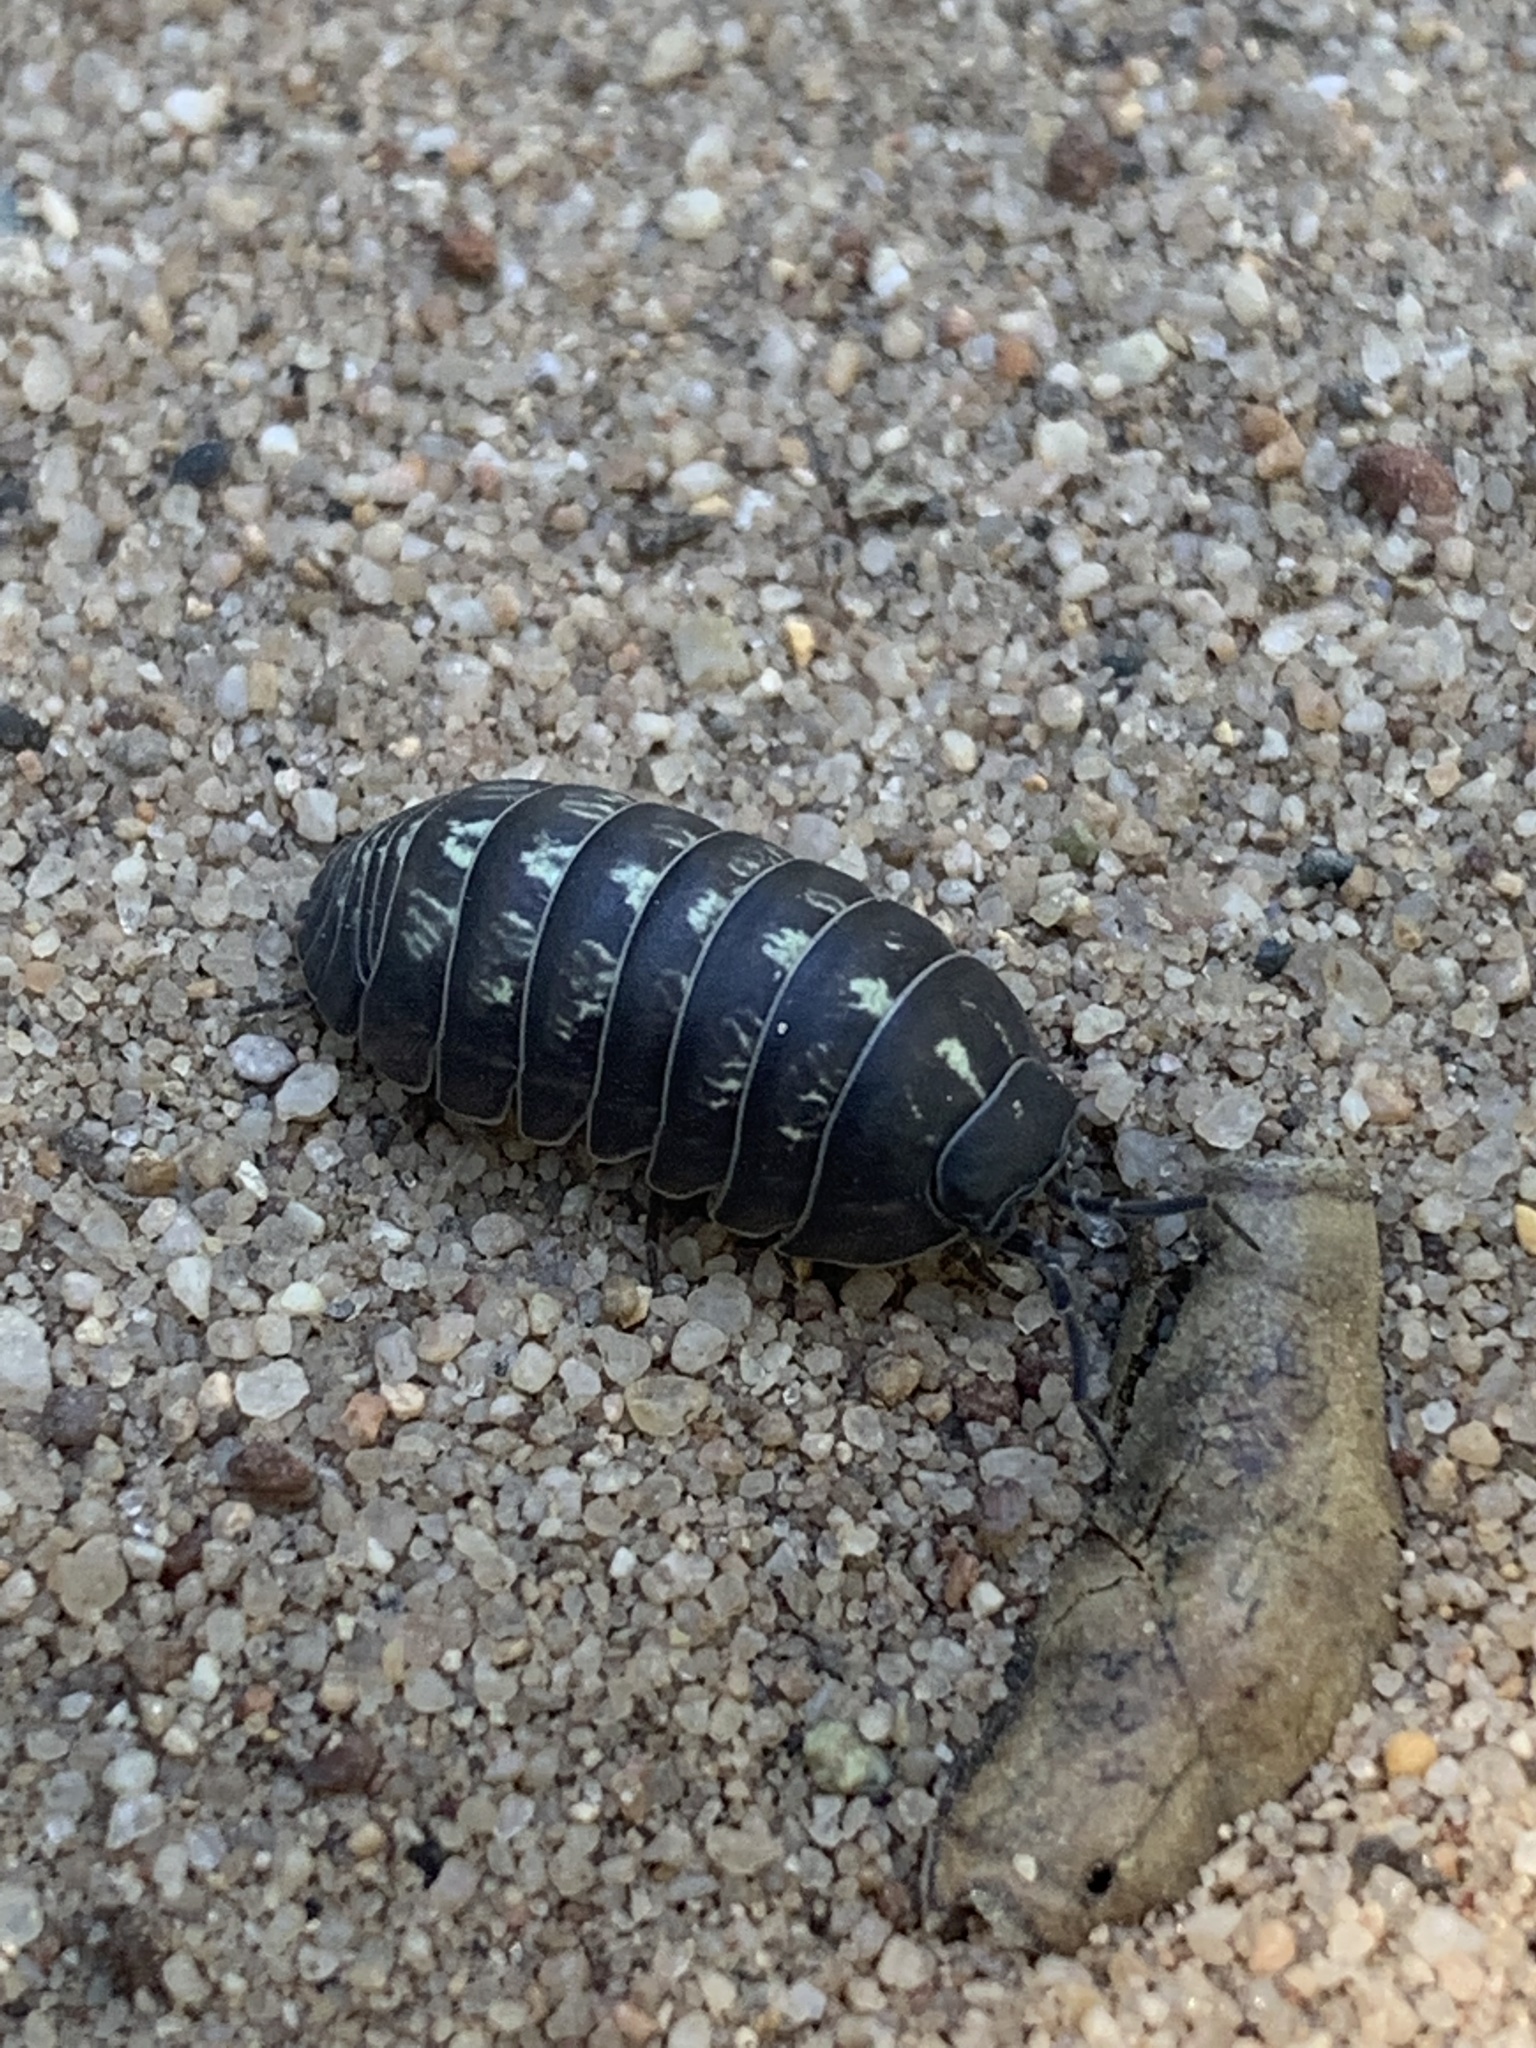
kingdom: Animalia
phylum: Arthropoda
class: Malacostraca
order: Isopoda
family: Armadillidiidae
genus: Armadillidium
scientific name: Armadillidium vulgare
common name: Common pill woodlouse
